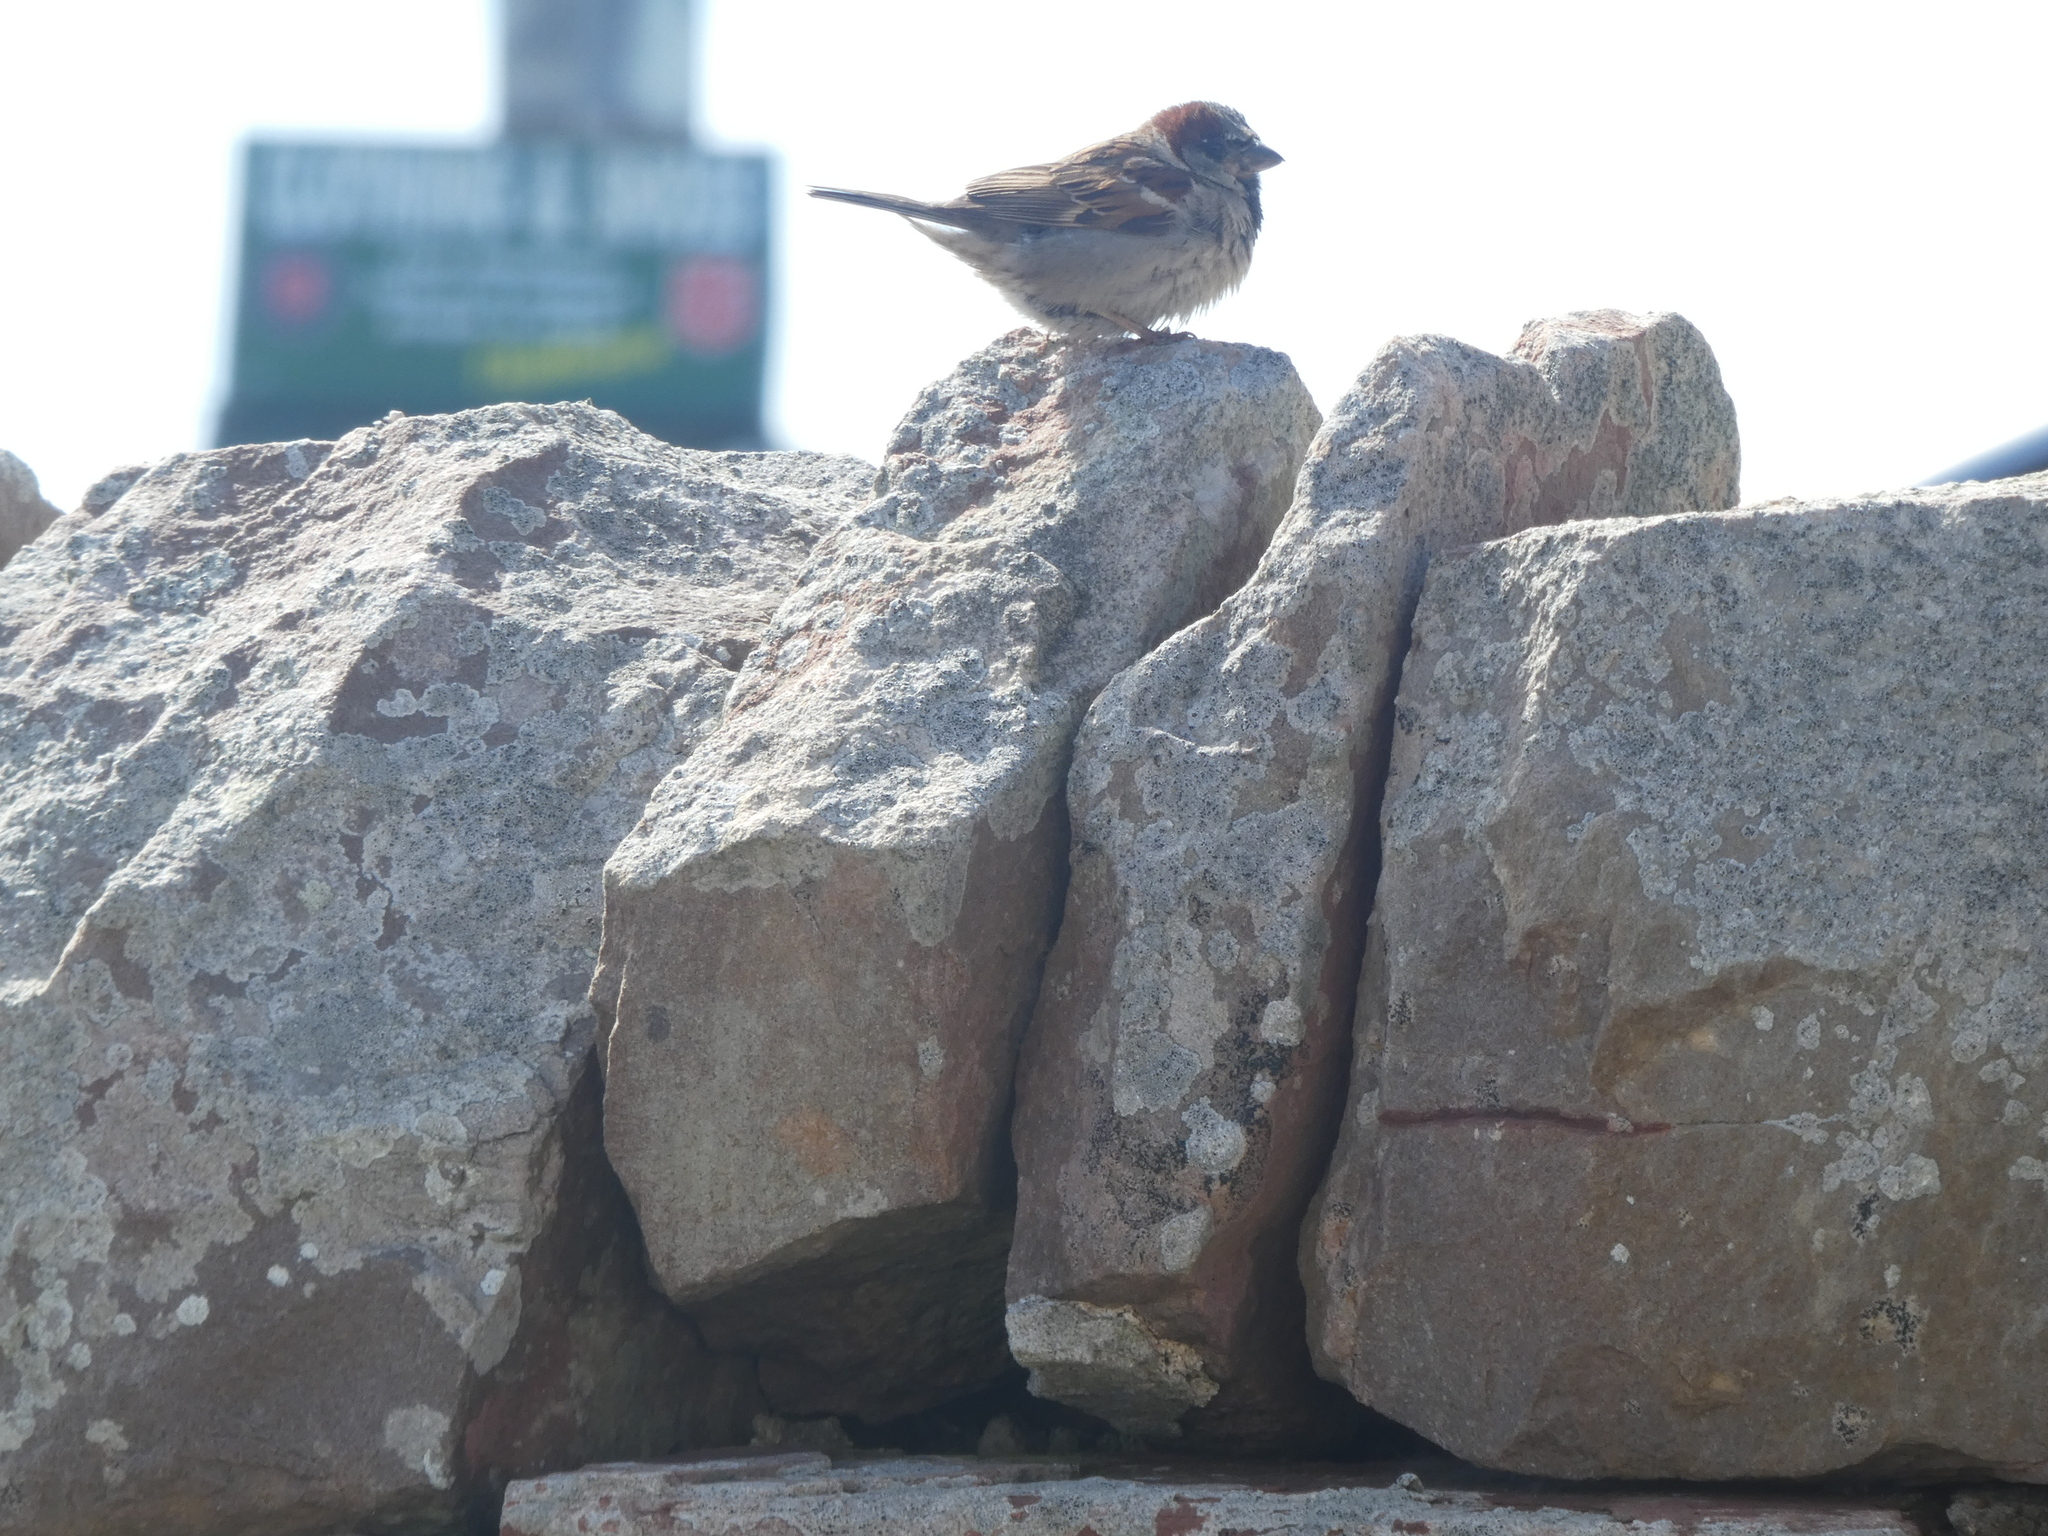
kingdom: Animalia
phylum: Chordata
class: Aves
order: Passeriformes
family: Passeridae
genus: Passer
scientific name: Passer domesticus
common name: House sparrow
